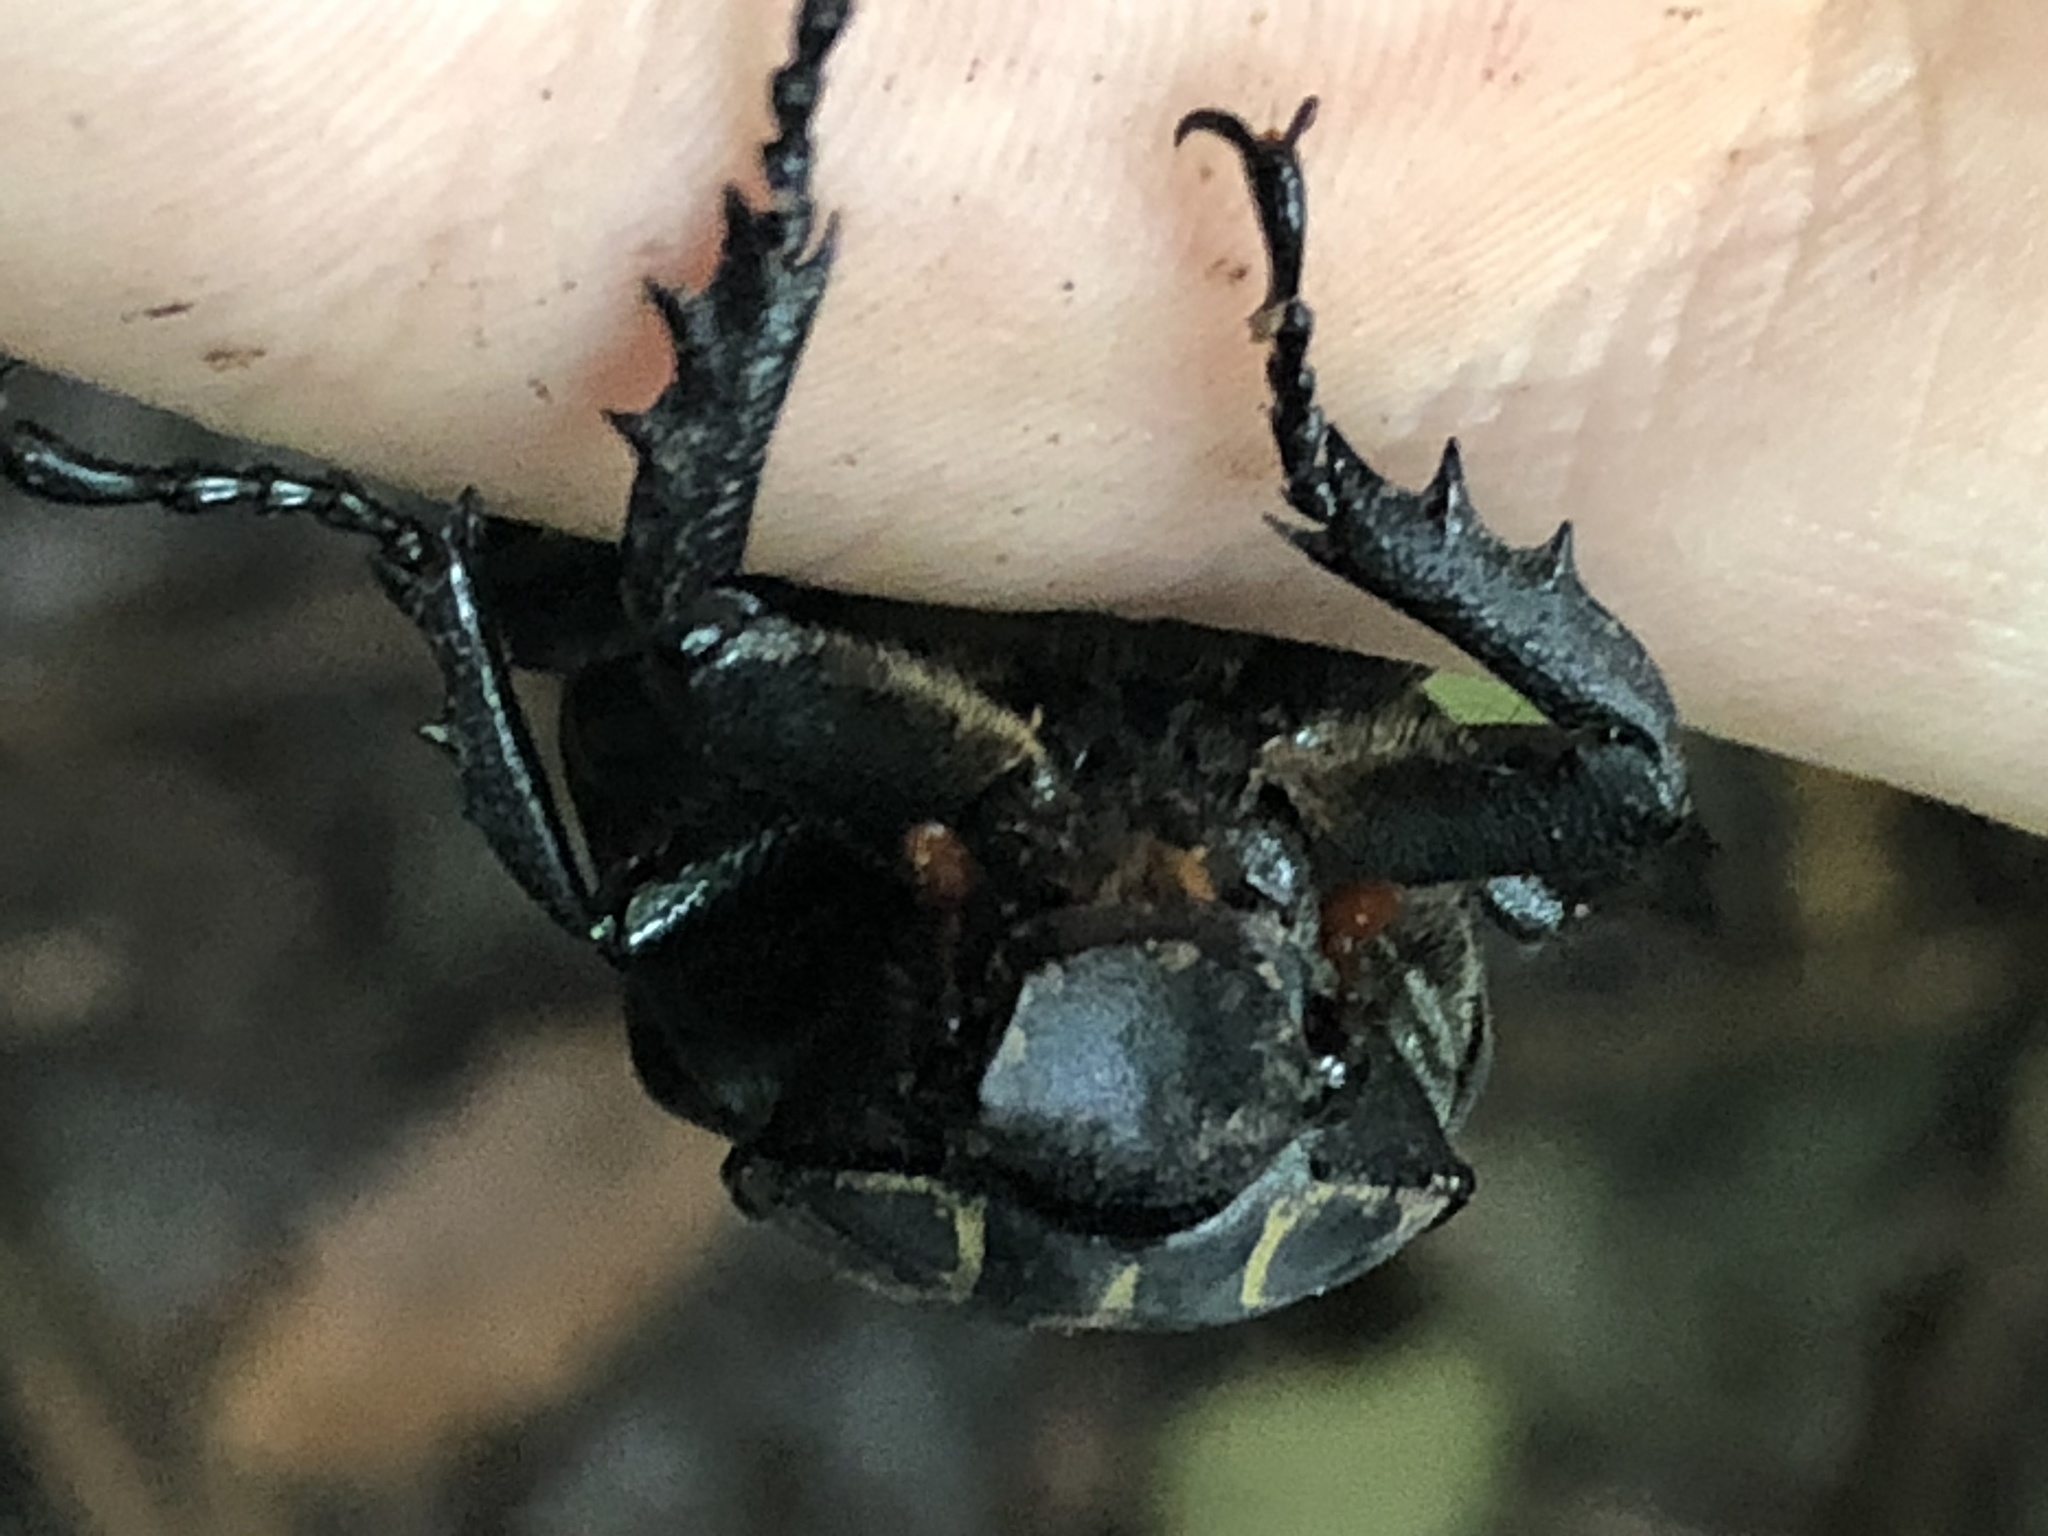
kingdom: Animalia
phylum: Arthropoda
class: Insecta
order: Coleoptera
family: Scarabaeidae
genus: Inca
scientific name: Inca clathratus
